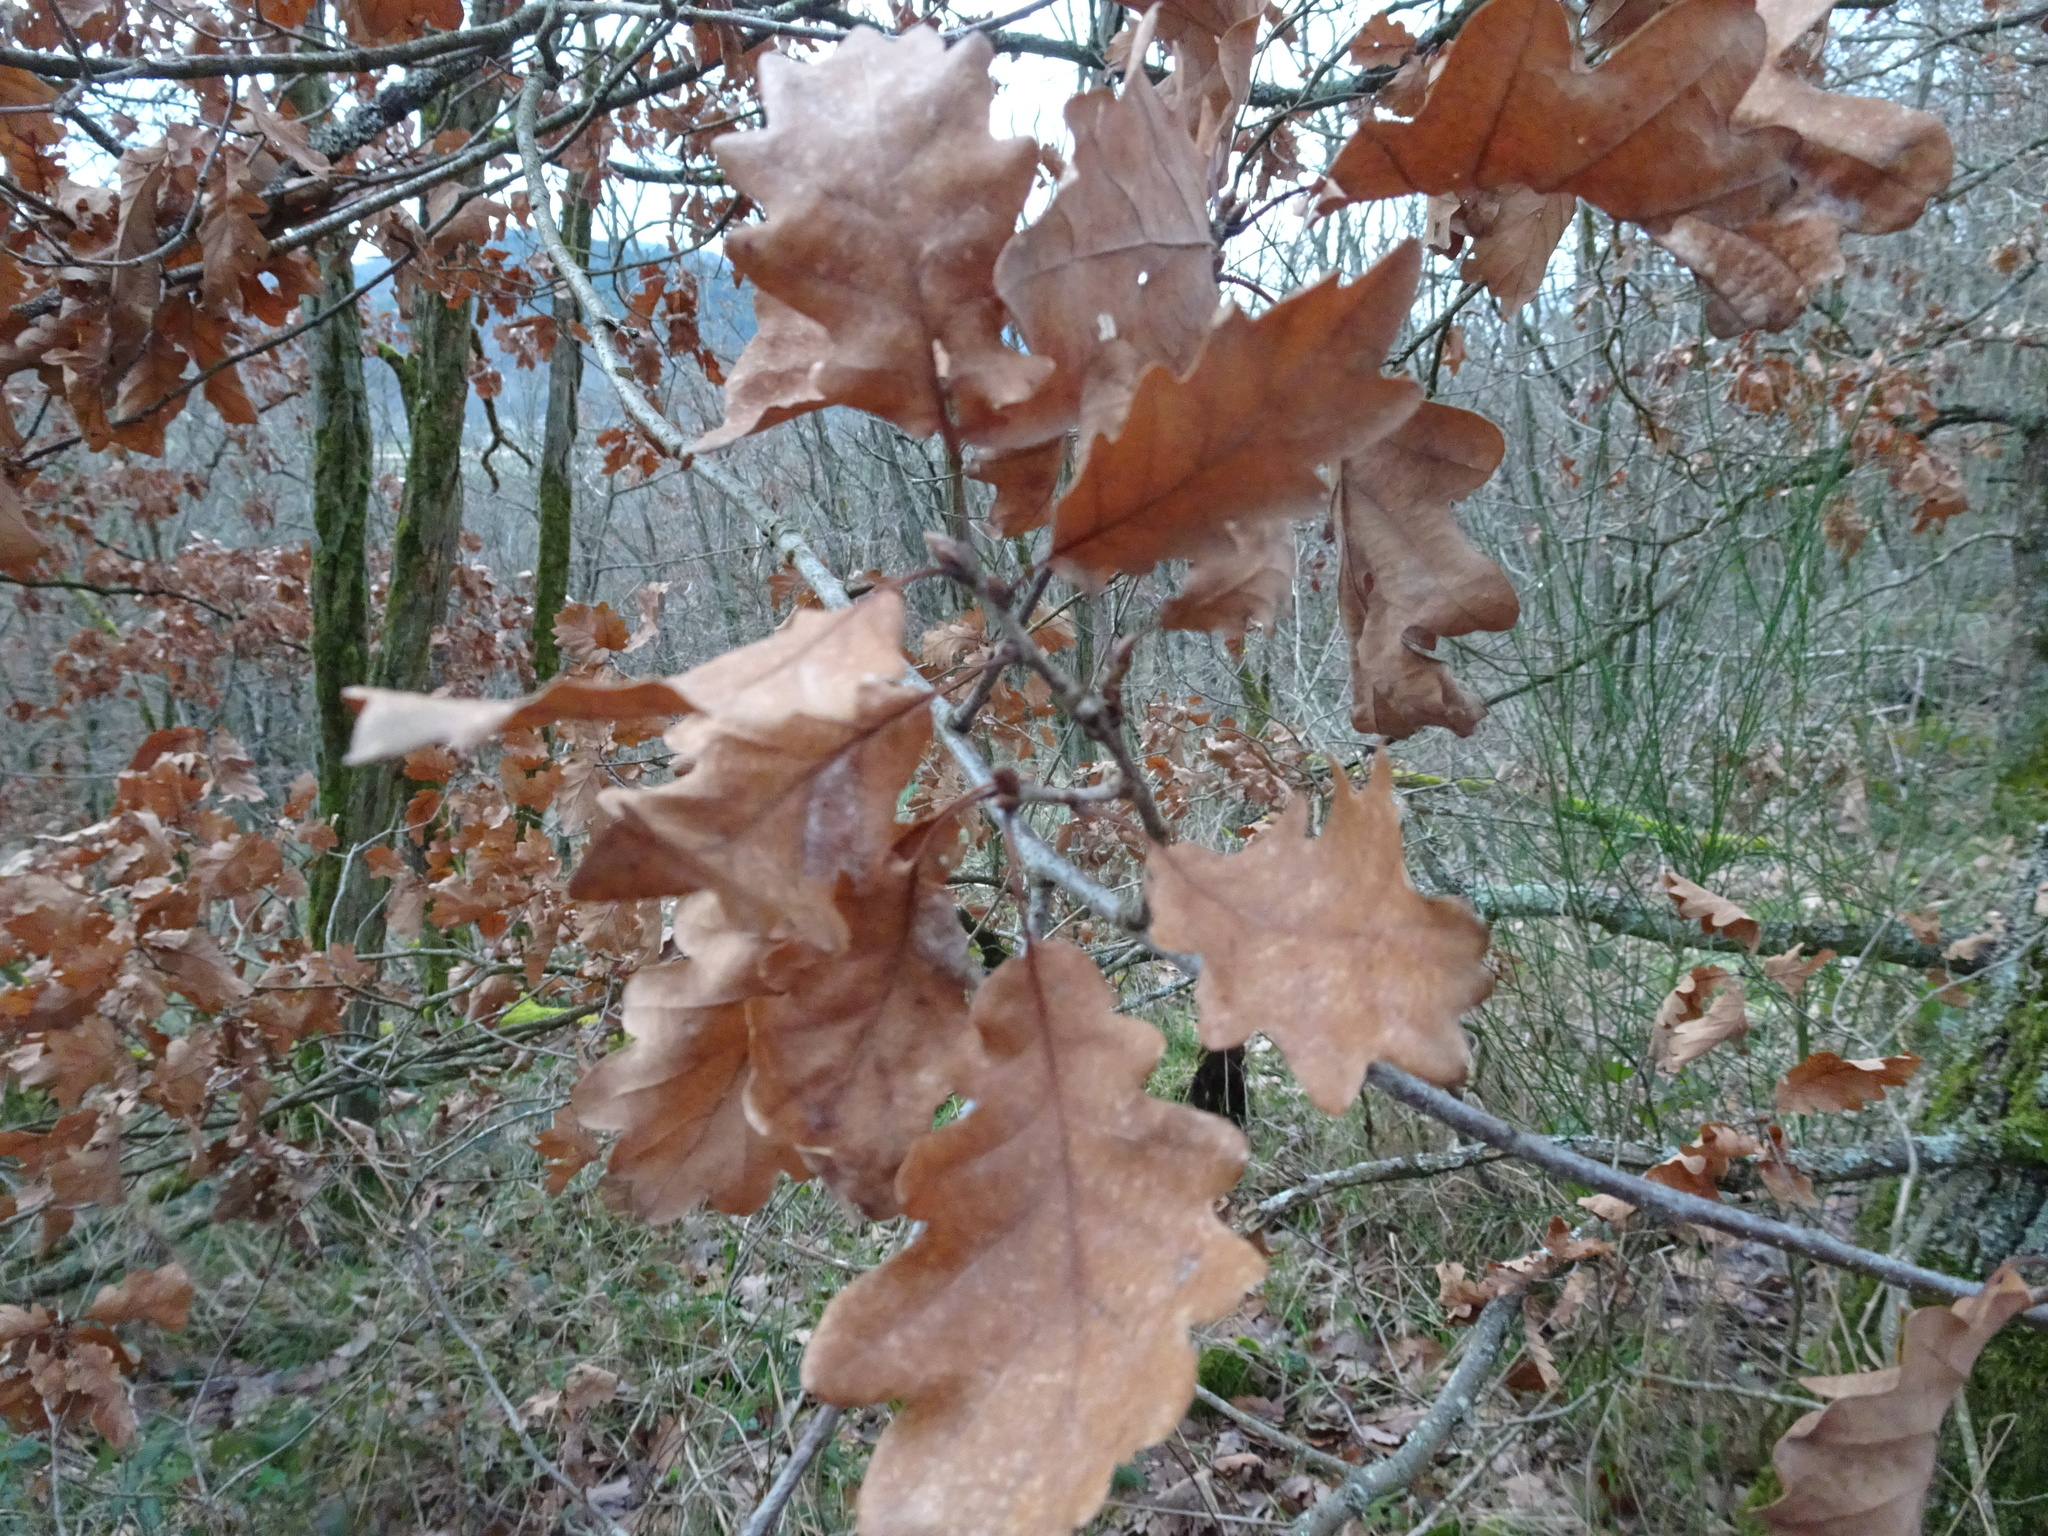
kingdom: Plantae
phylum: Tracheophyta
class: Magnoliopsida
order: Fagales
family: Fagaceae
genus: Quercus
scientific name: Quercus petraea
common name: Sessile oak
